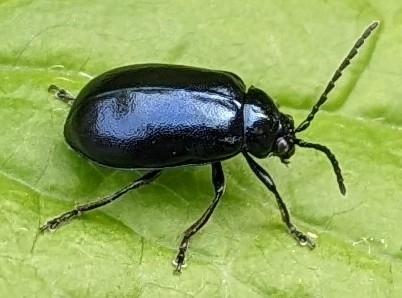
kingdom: Animalia
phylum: Arthropoda
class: Insecta
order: Coleoptera
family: Chrysomelidae
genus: Agelastica
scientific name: Agelastica alni
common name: Alder leaf beetle
